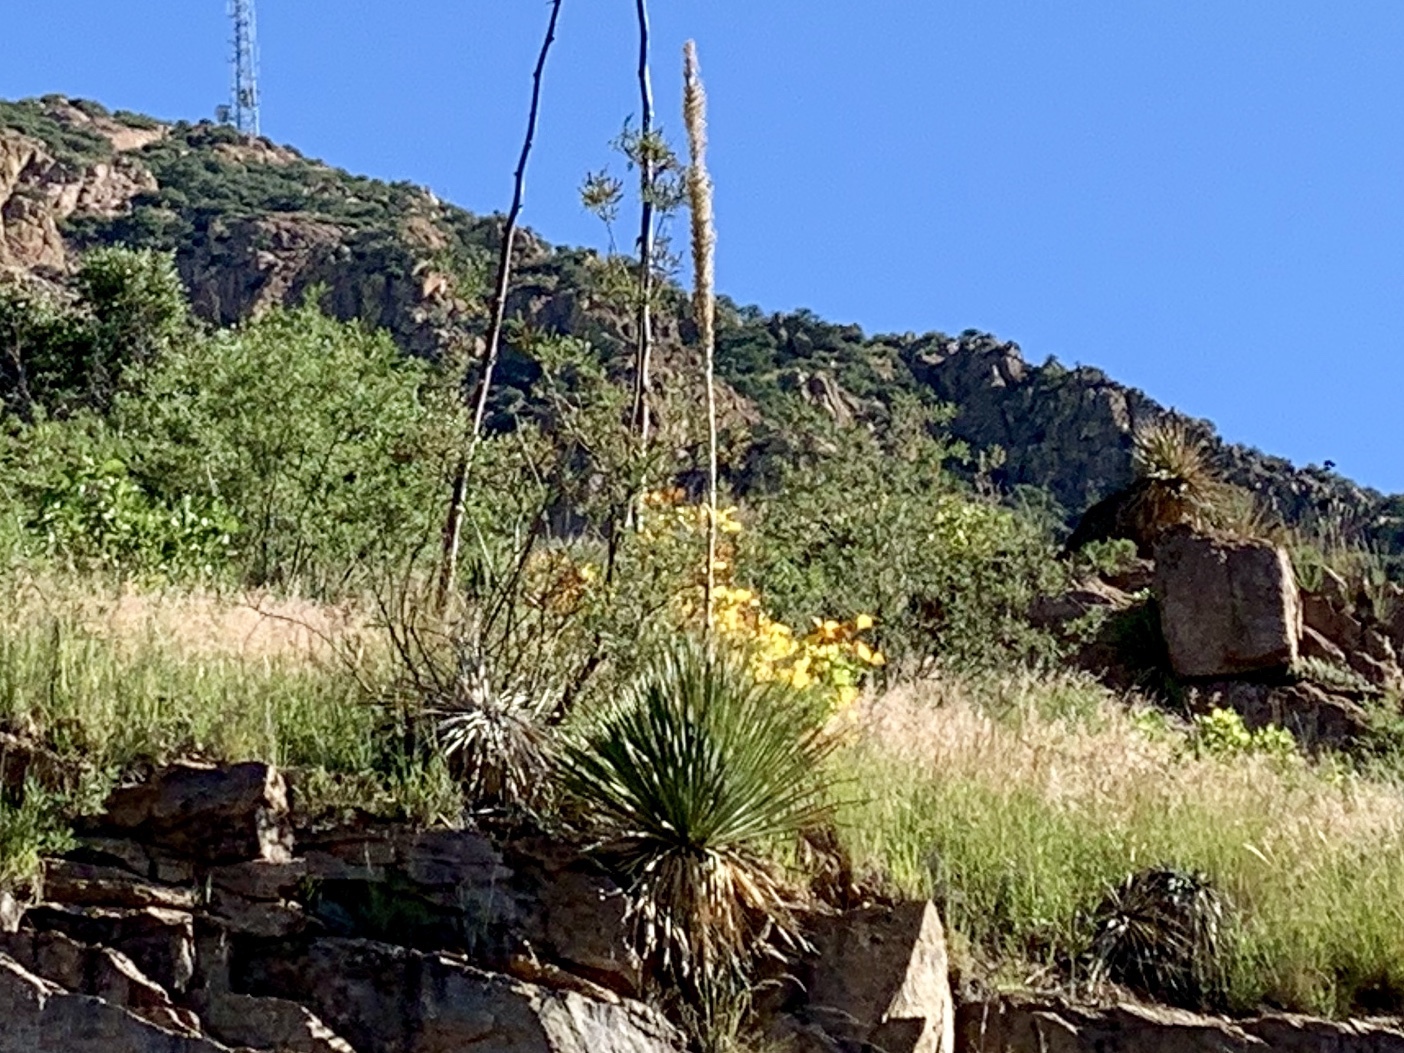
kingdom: Plantae
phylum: Tracheophyta
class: Liliopsida
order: Asparagales
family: Asparagaceae
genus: Dasylirion
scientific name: Dasylirion wheeleri
